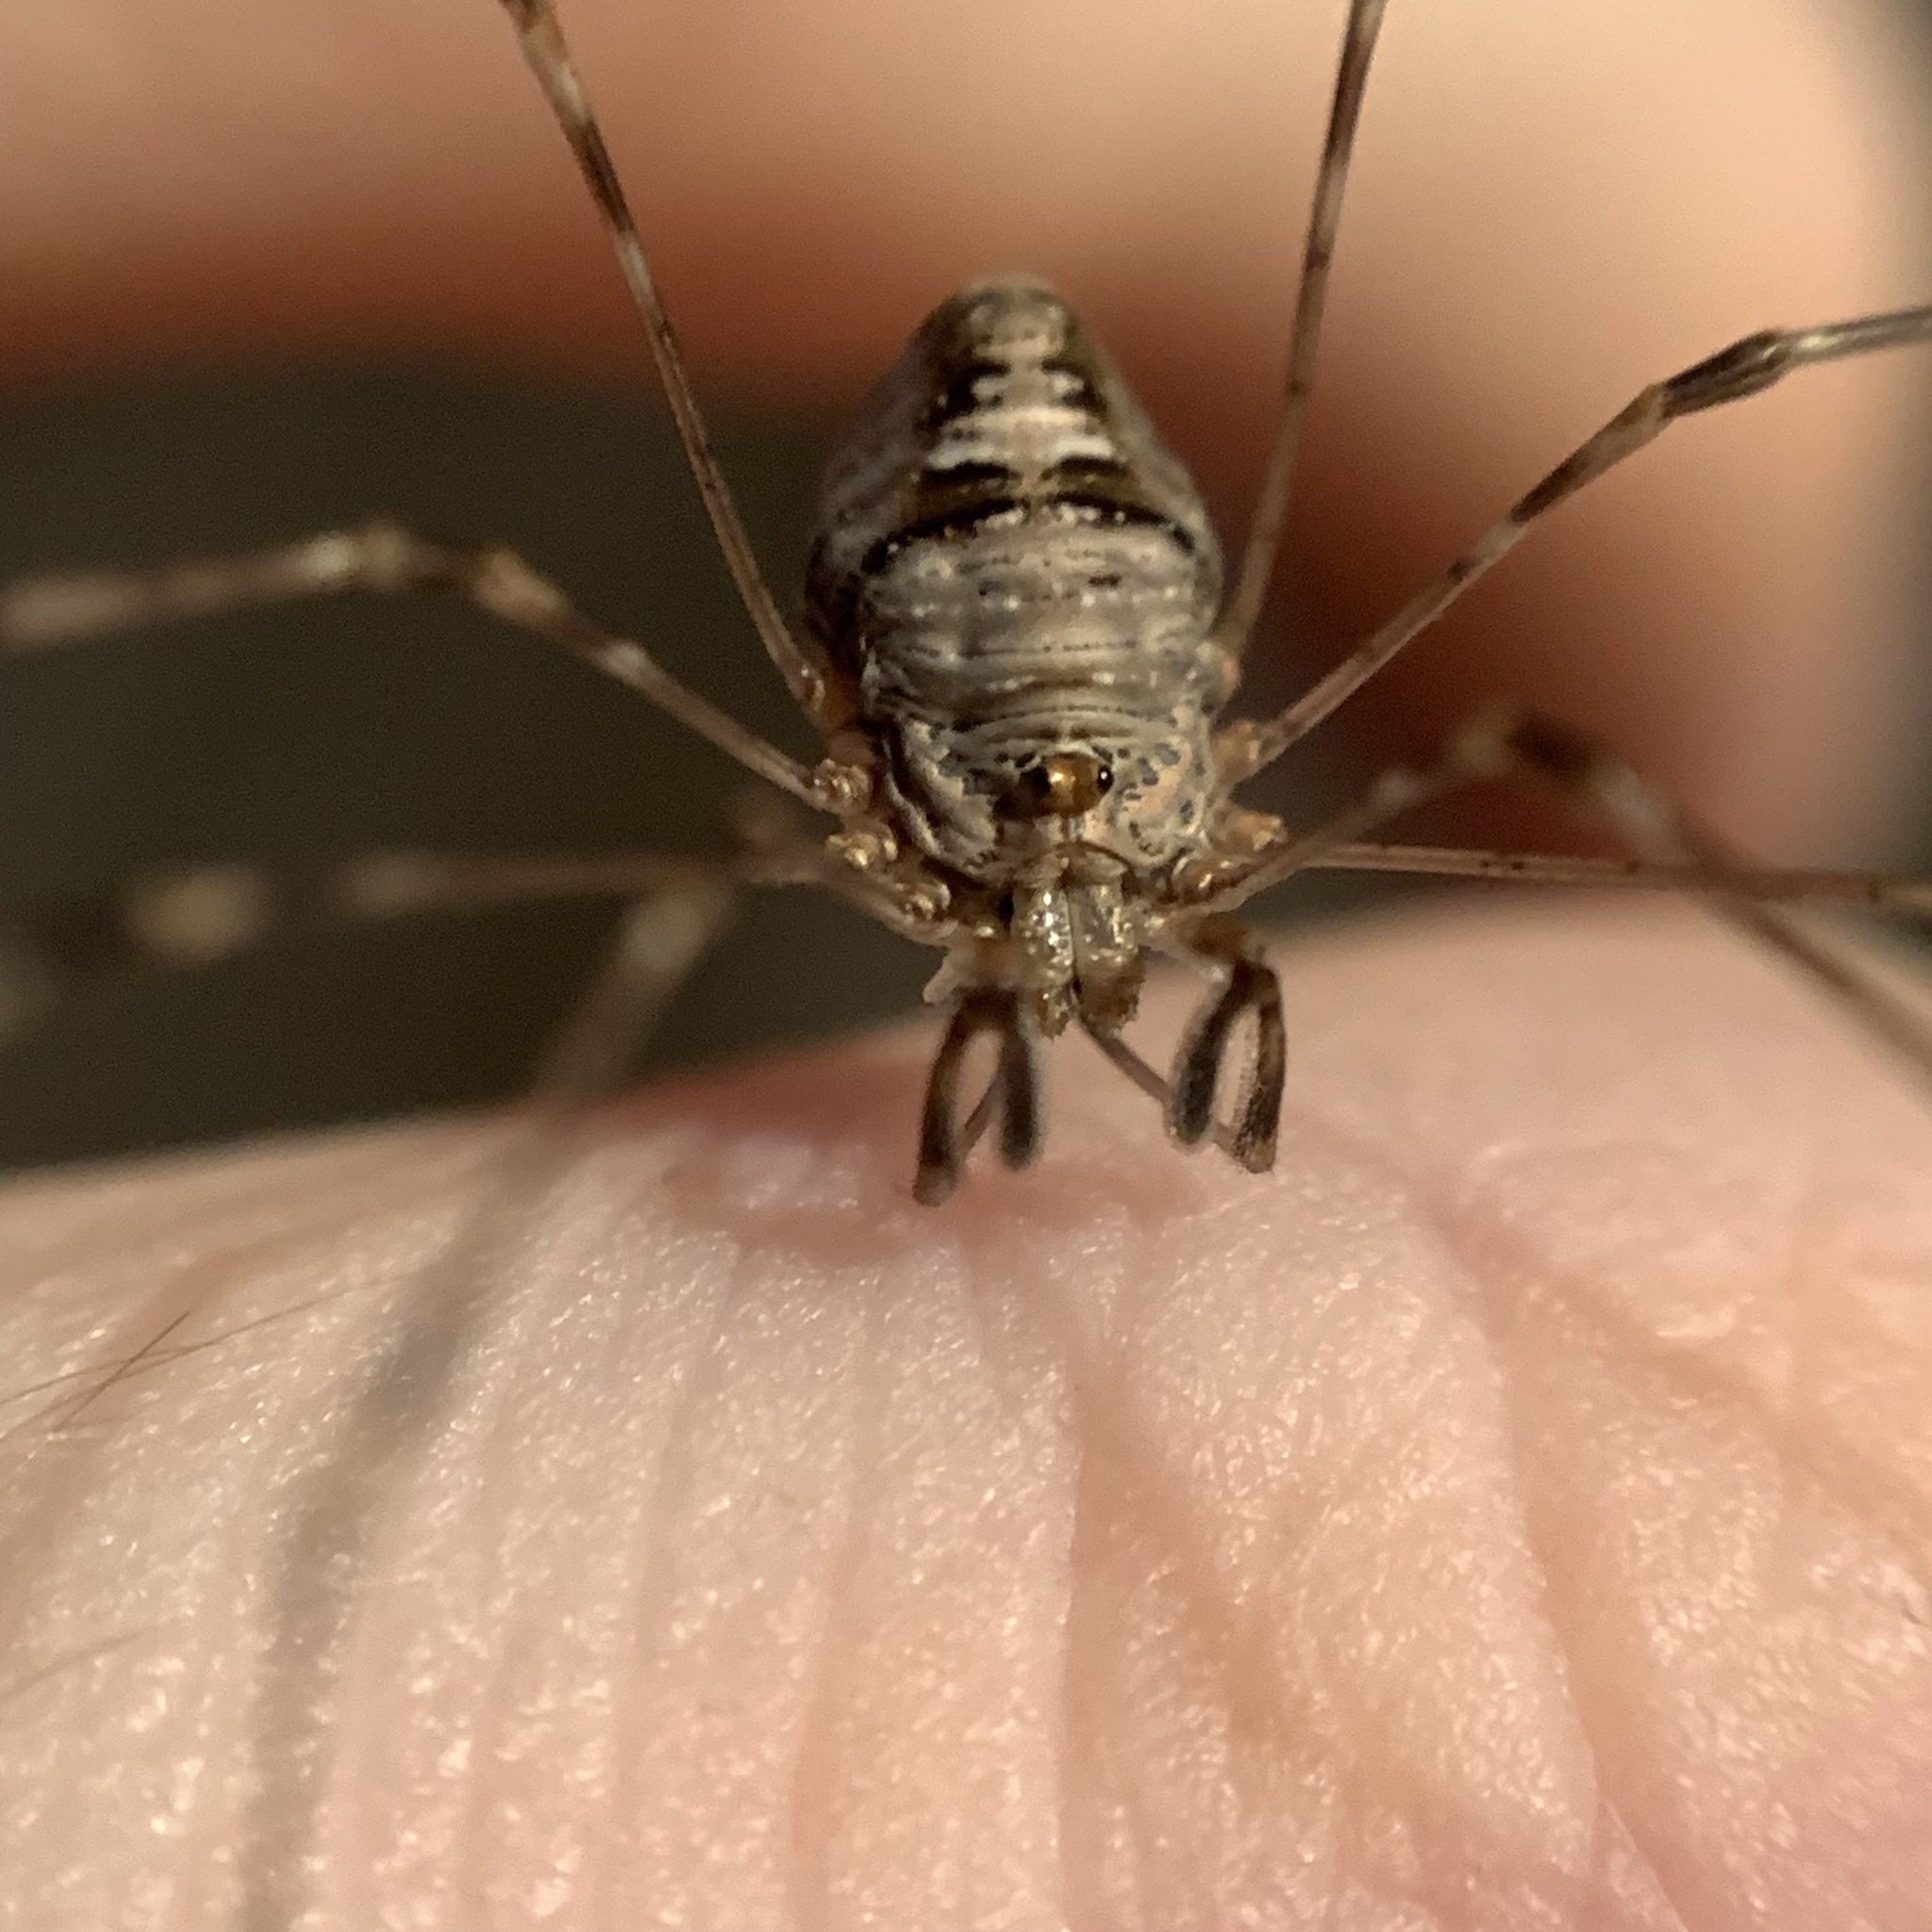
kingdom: Animalia
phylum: Arthropoda
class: Arachnida
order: Opiliones
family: Phalangiidae
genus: Dicranopalpus
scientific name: Dicranopalpus ramosus
